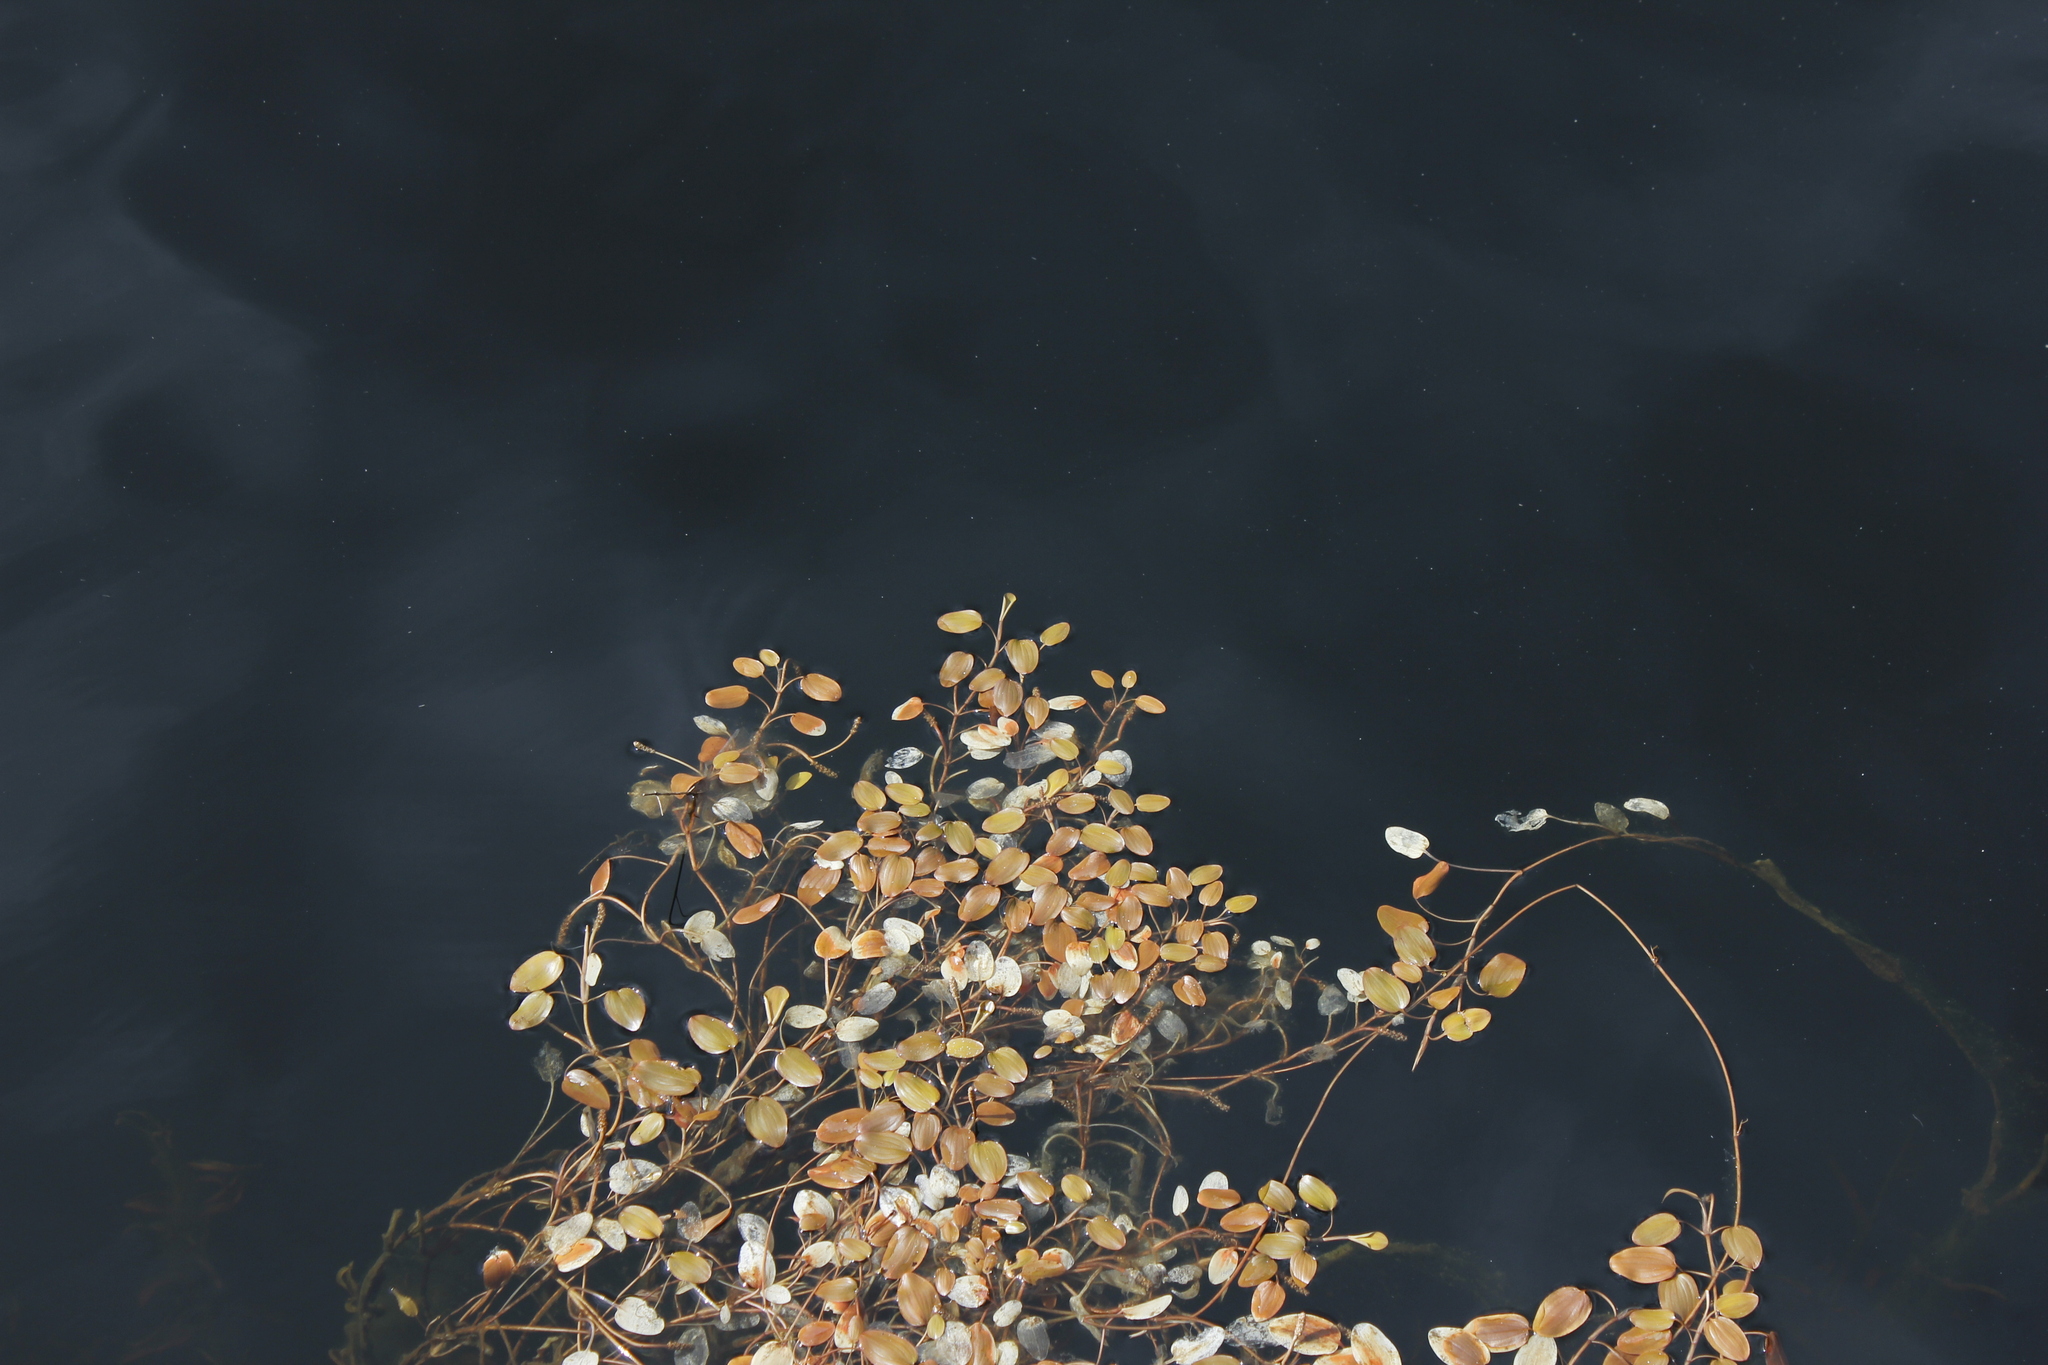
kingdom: Plantae
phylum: Tracheophyta
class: Liliopsida
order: Alismatales
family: Potamogetonaceae
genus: Potamogeton
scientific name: Potamogeton cheesemanii
